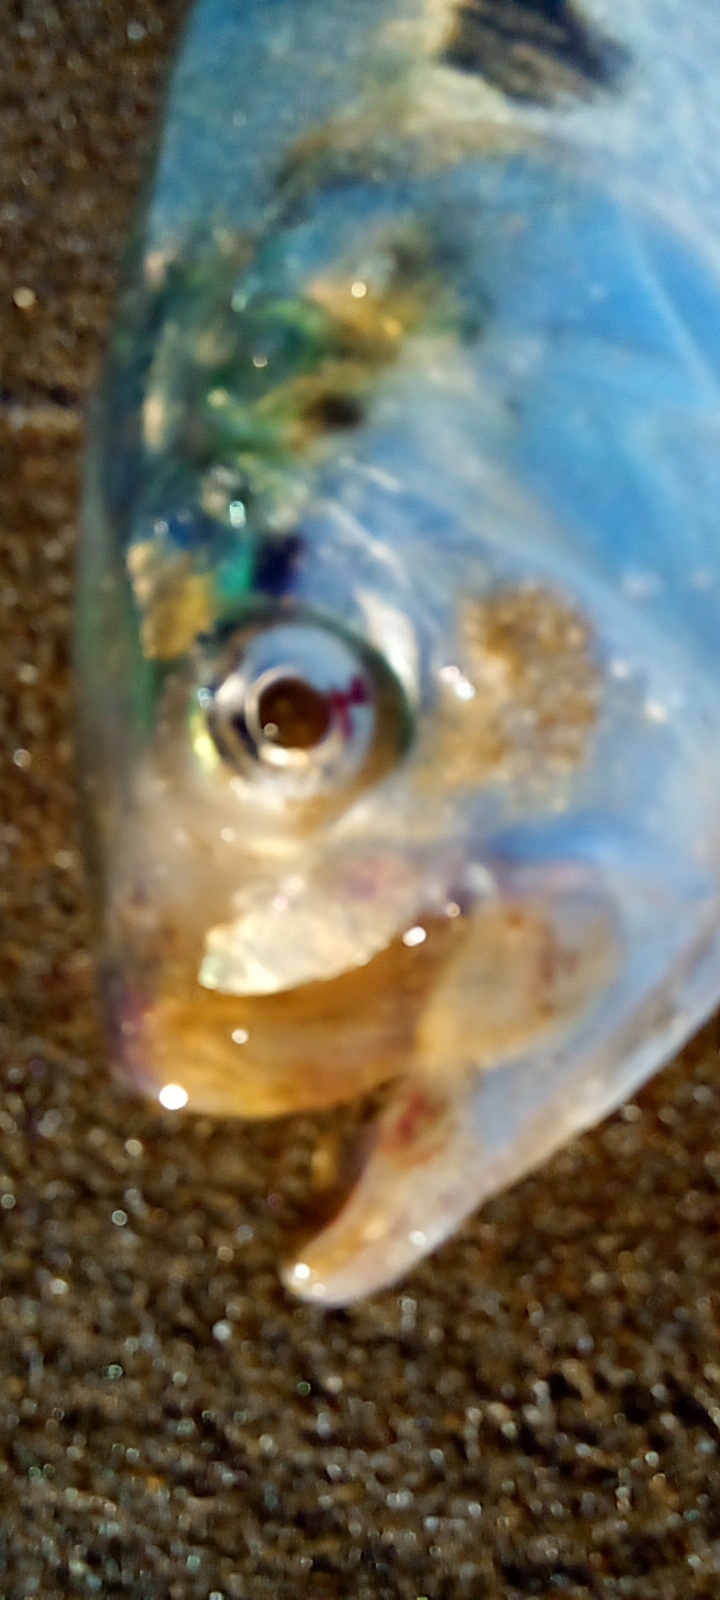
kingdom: Animalia
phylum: Chordata
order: Clupeiformes
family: Clupeidae
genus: Brevoortia
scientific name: Brevoortia aurea
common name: Brazilian menhaden
